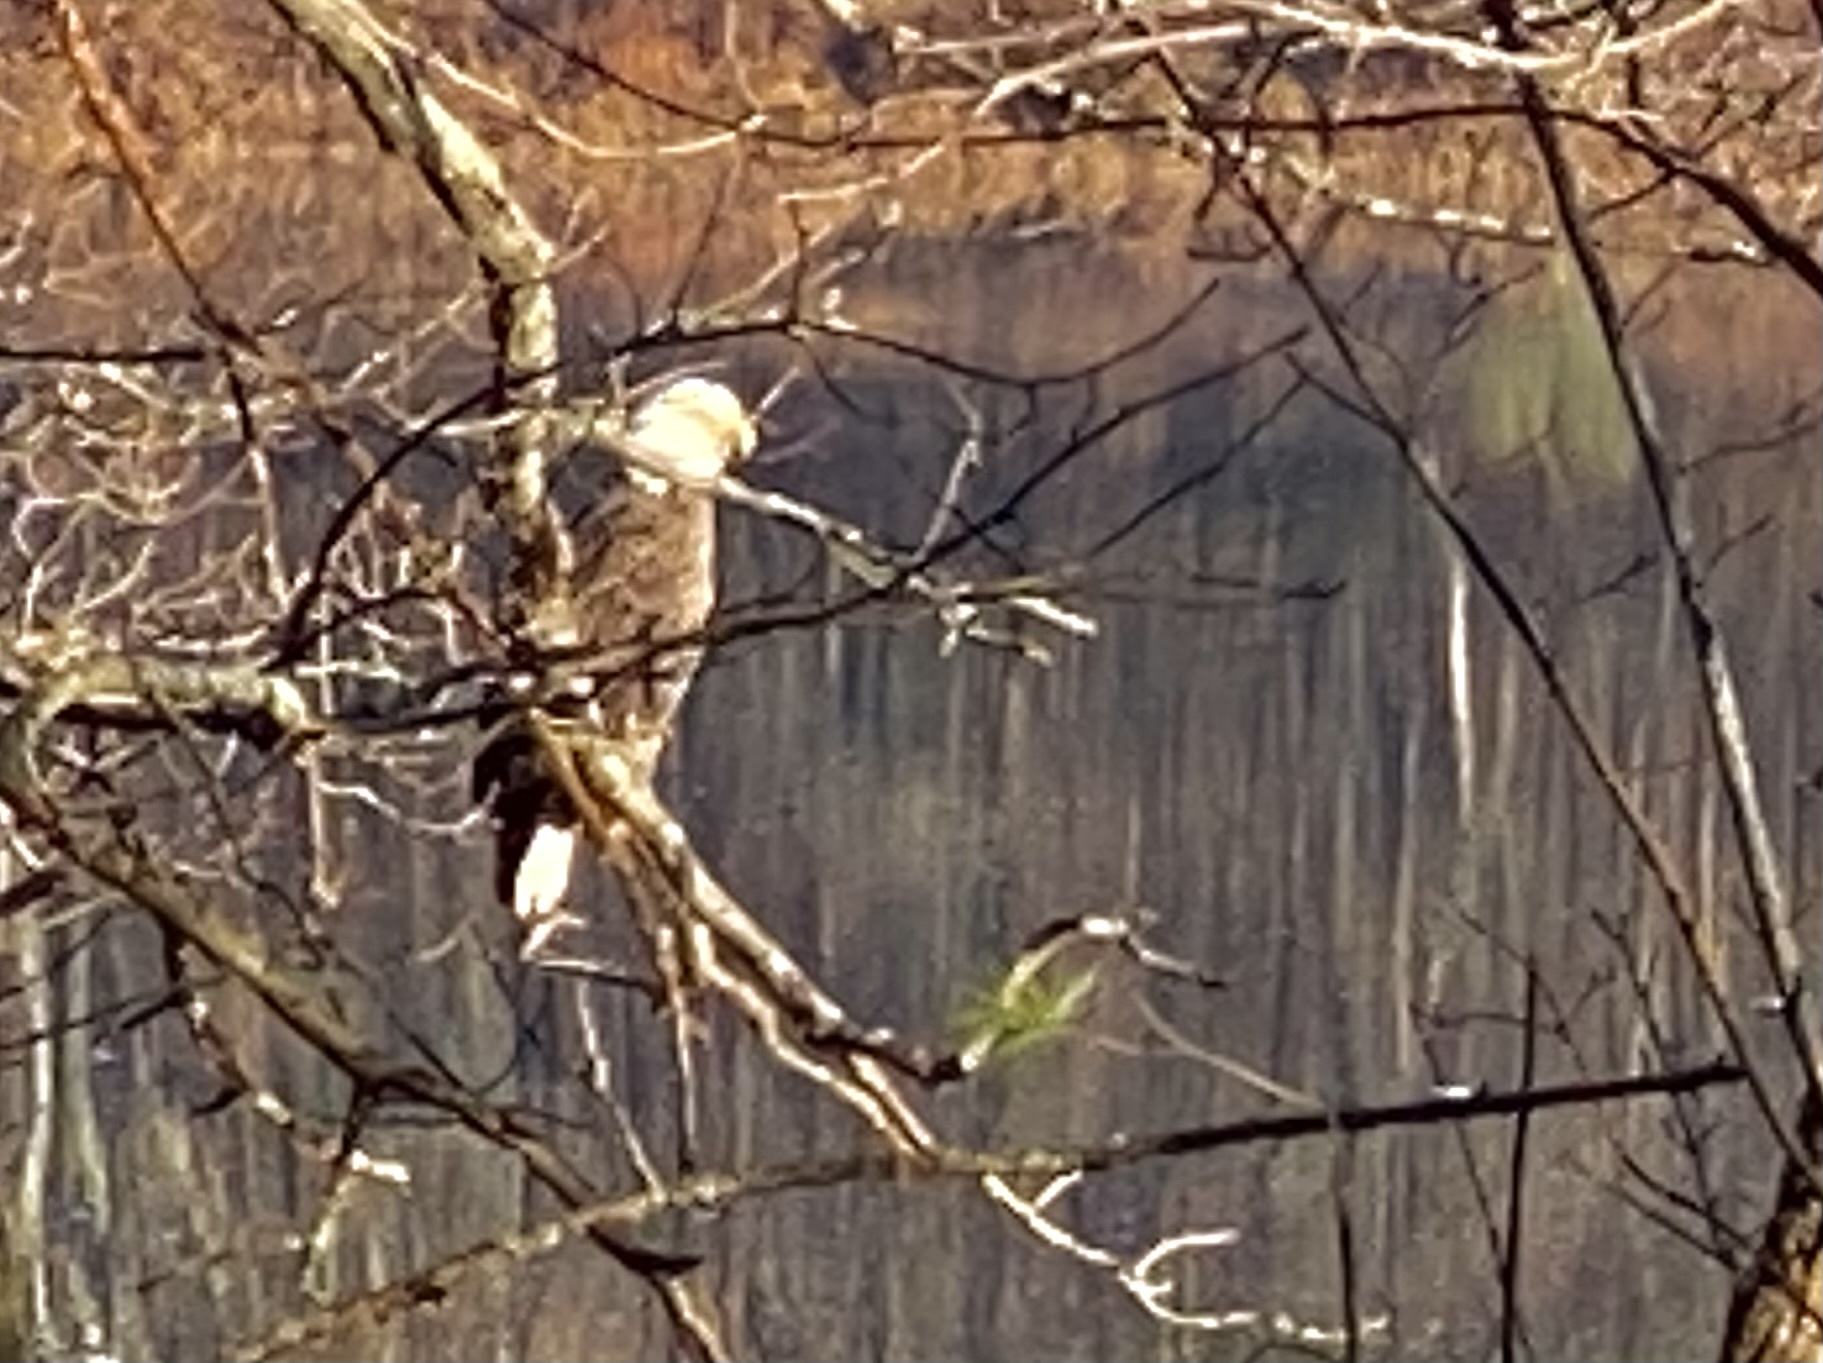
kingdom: Animalia
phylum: Chordata
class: Aves
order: Accipitriformes
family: Accipitridae
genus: Haliaeetus
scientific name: Haliaeetus leucocephalus
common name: Bald eagle
